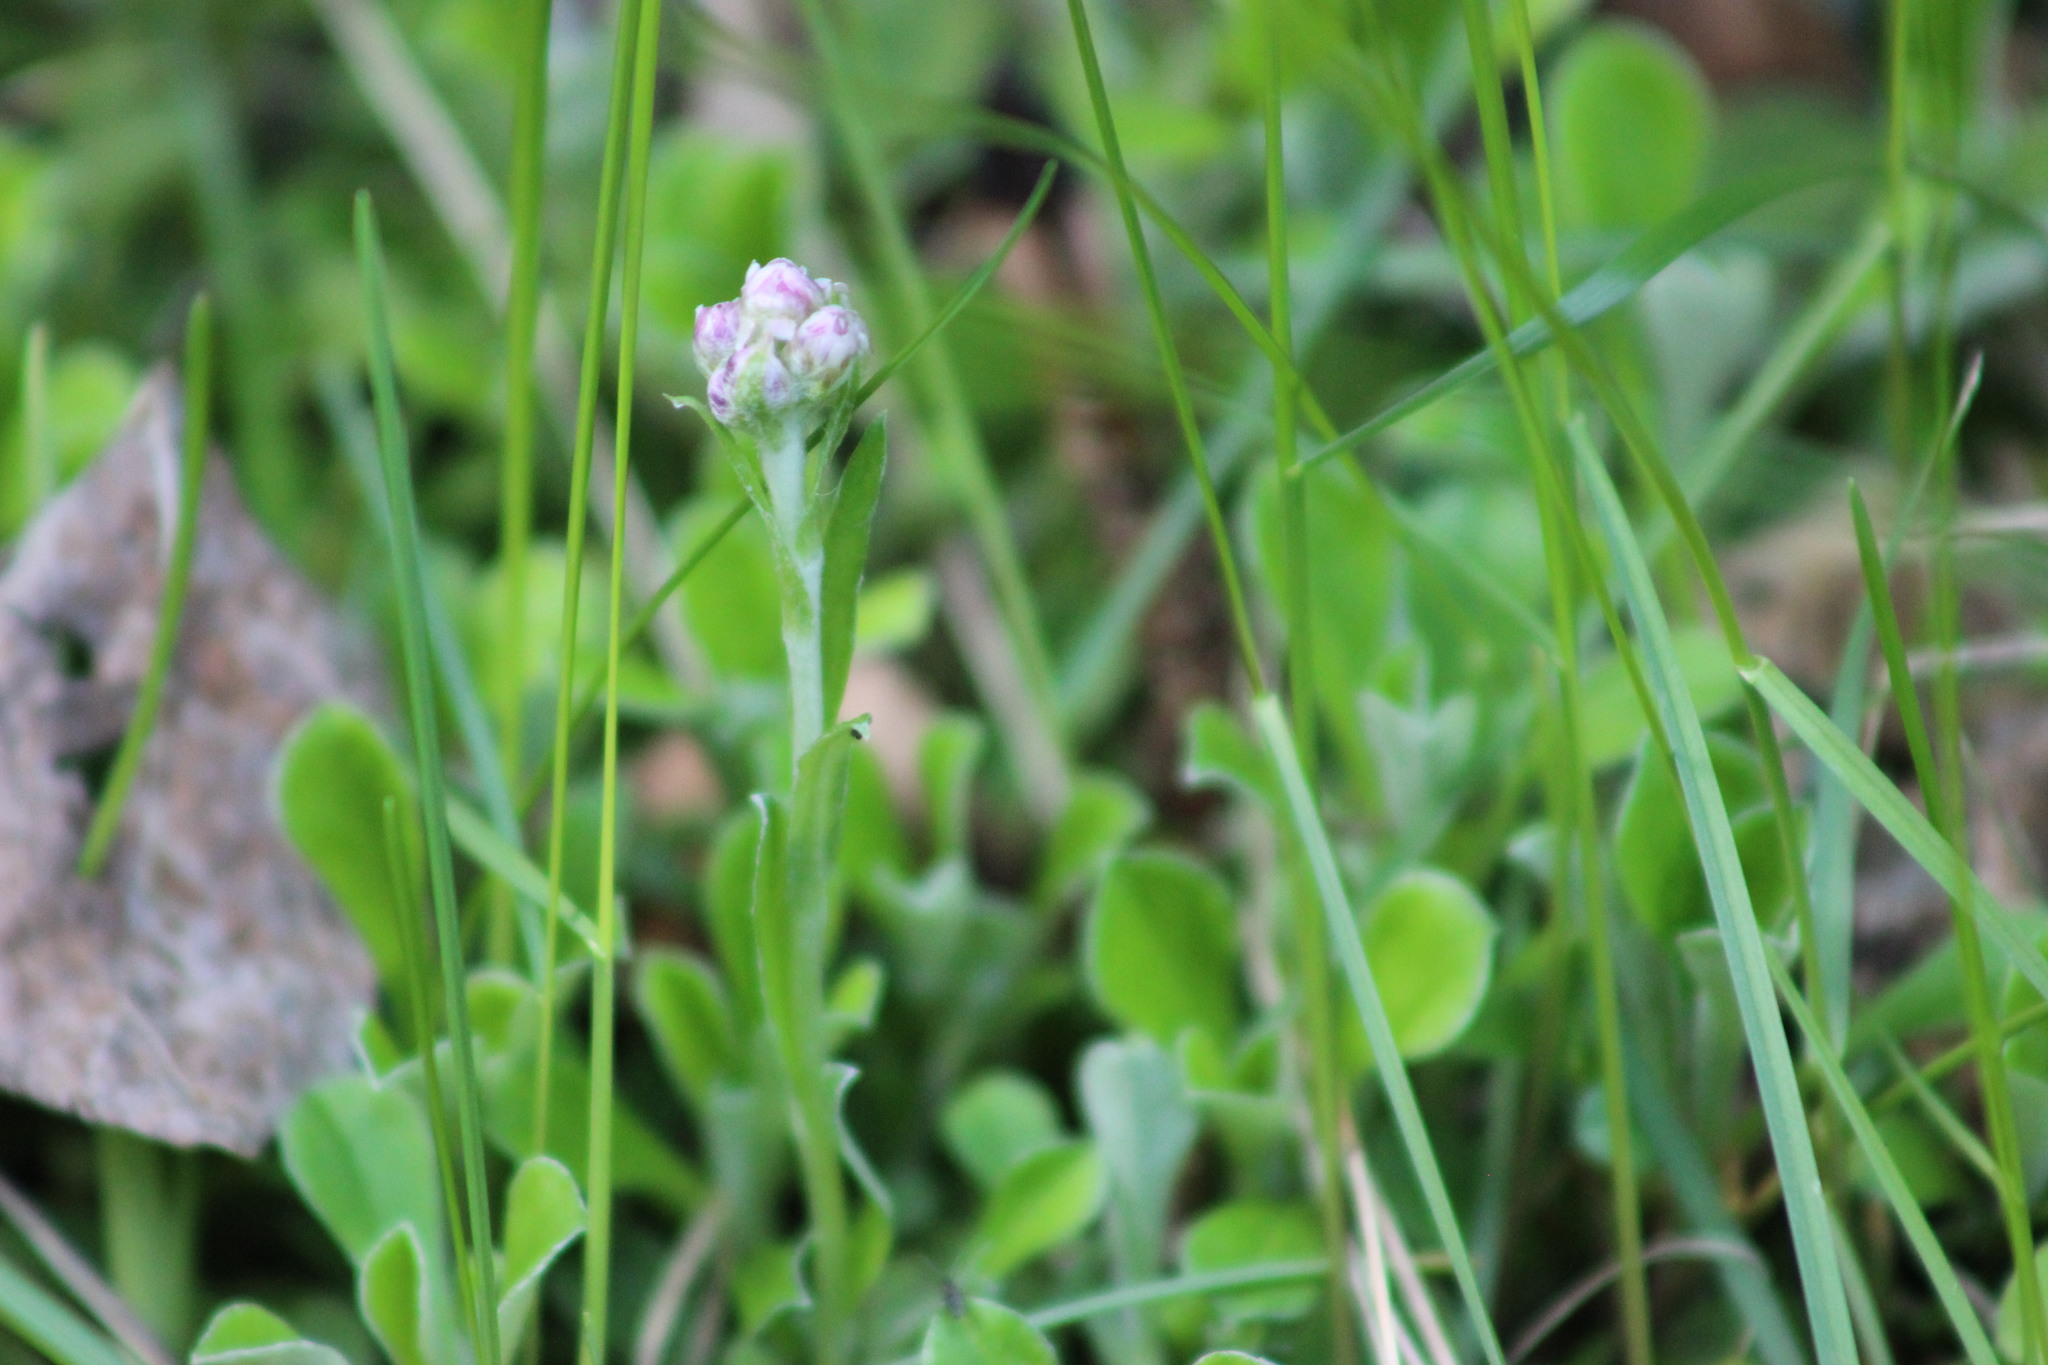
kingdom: Plantae
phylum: Tracheophyta
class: Magnoliopsida
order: Asterales
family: Asteraceae
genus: Antennaria
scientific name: Antennaria dioica
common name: Mountain everlasting
